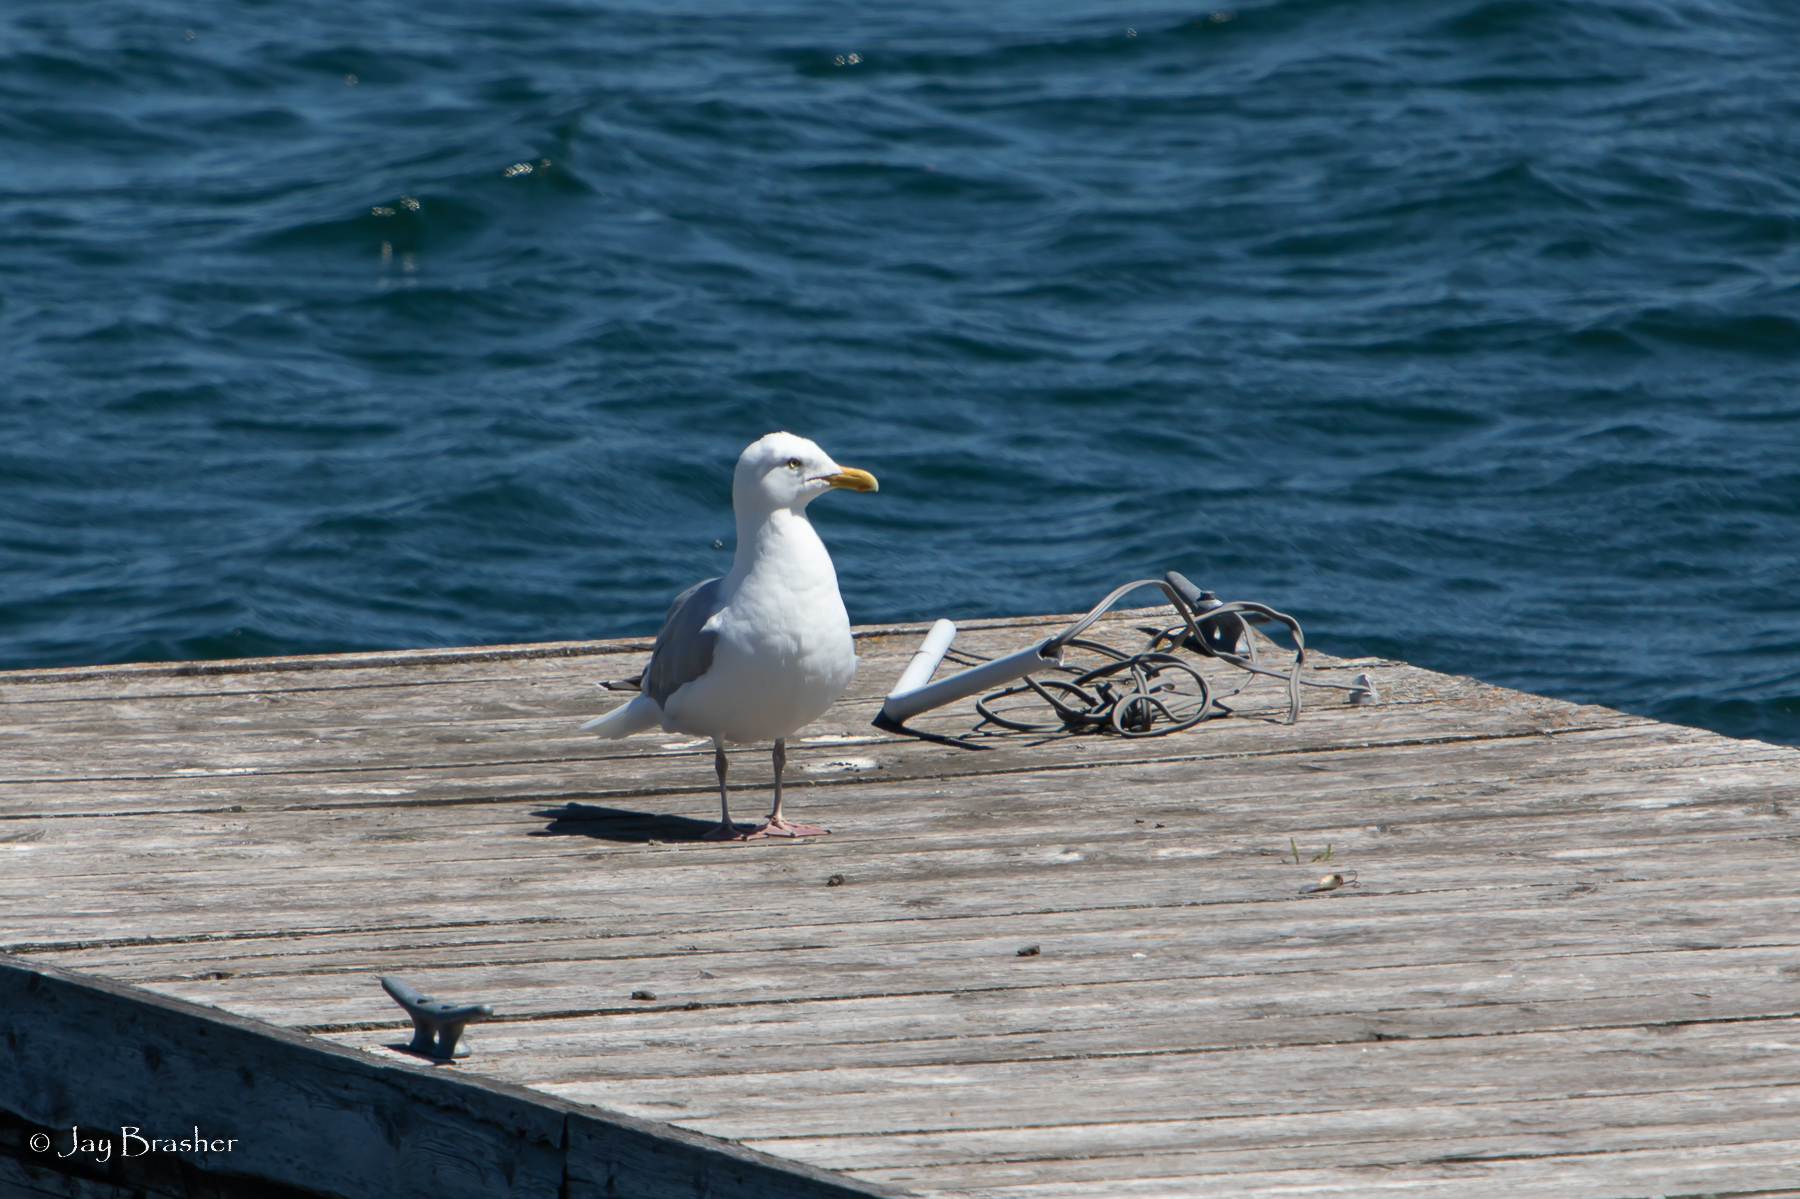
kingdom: Animalia
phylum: Chordata
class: Aves
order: Charadriiformes
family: Laridae
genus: Larus
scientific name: Larus argentatus
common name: Herring gull
